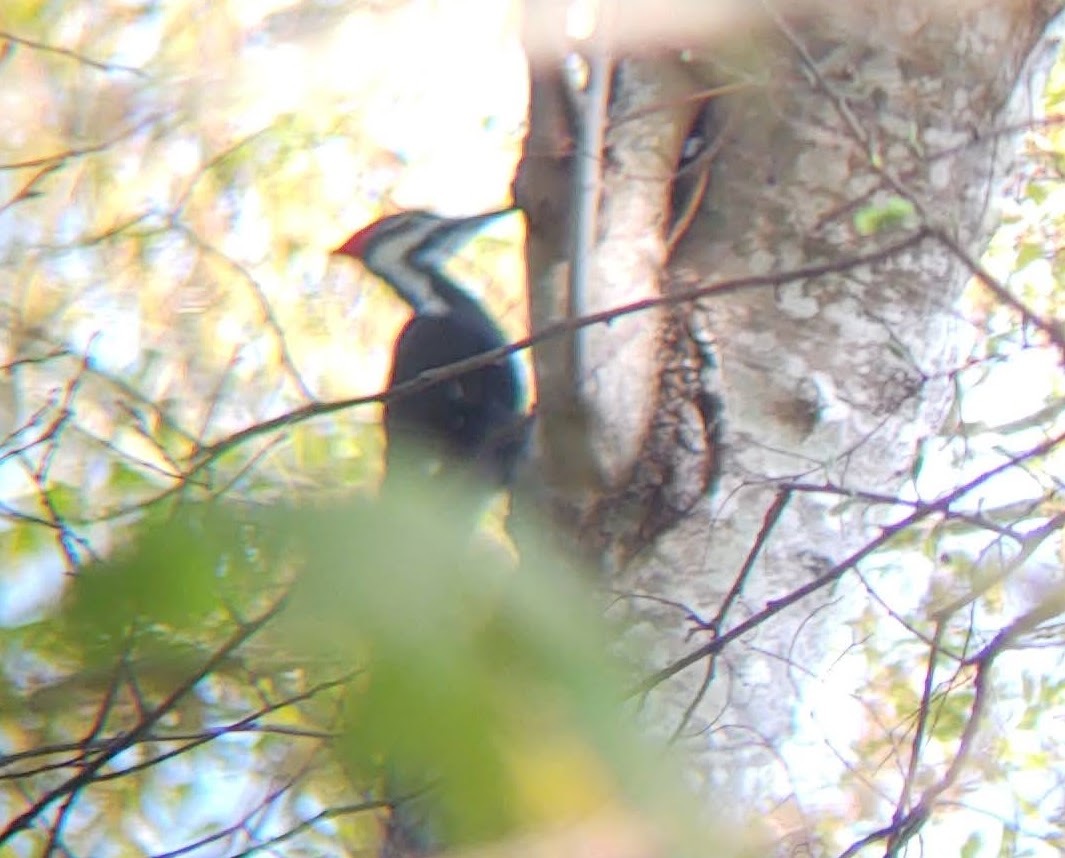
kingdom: Animalia
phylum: Chordata
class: Aves
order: Piciformes
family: Picidae
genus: Dryocopus
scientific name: Dryocopus pileatus
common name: Pileated woodpecker
